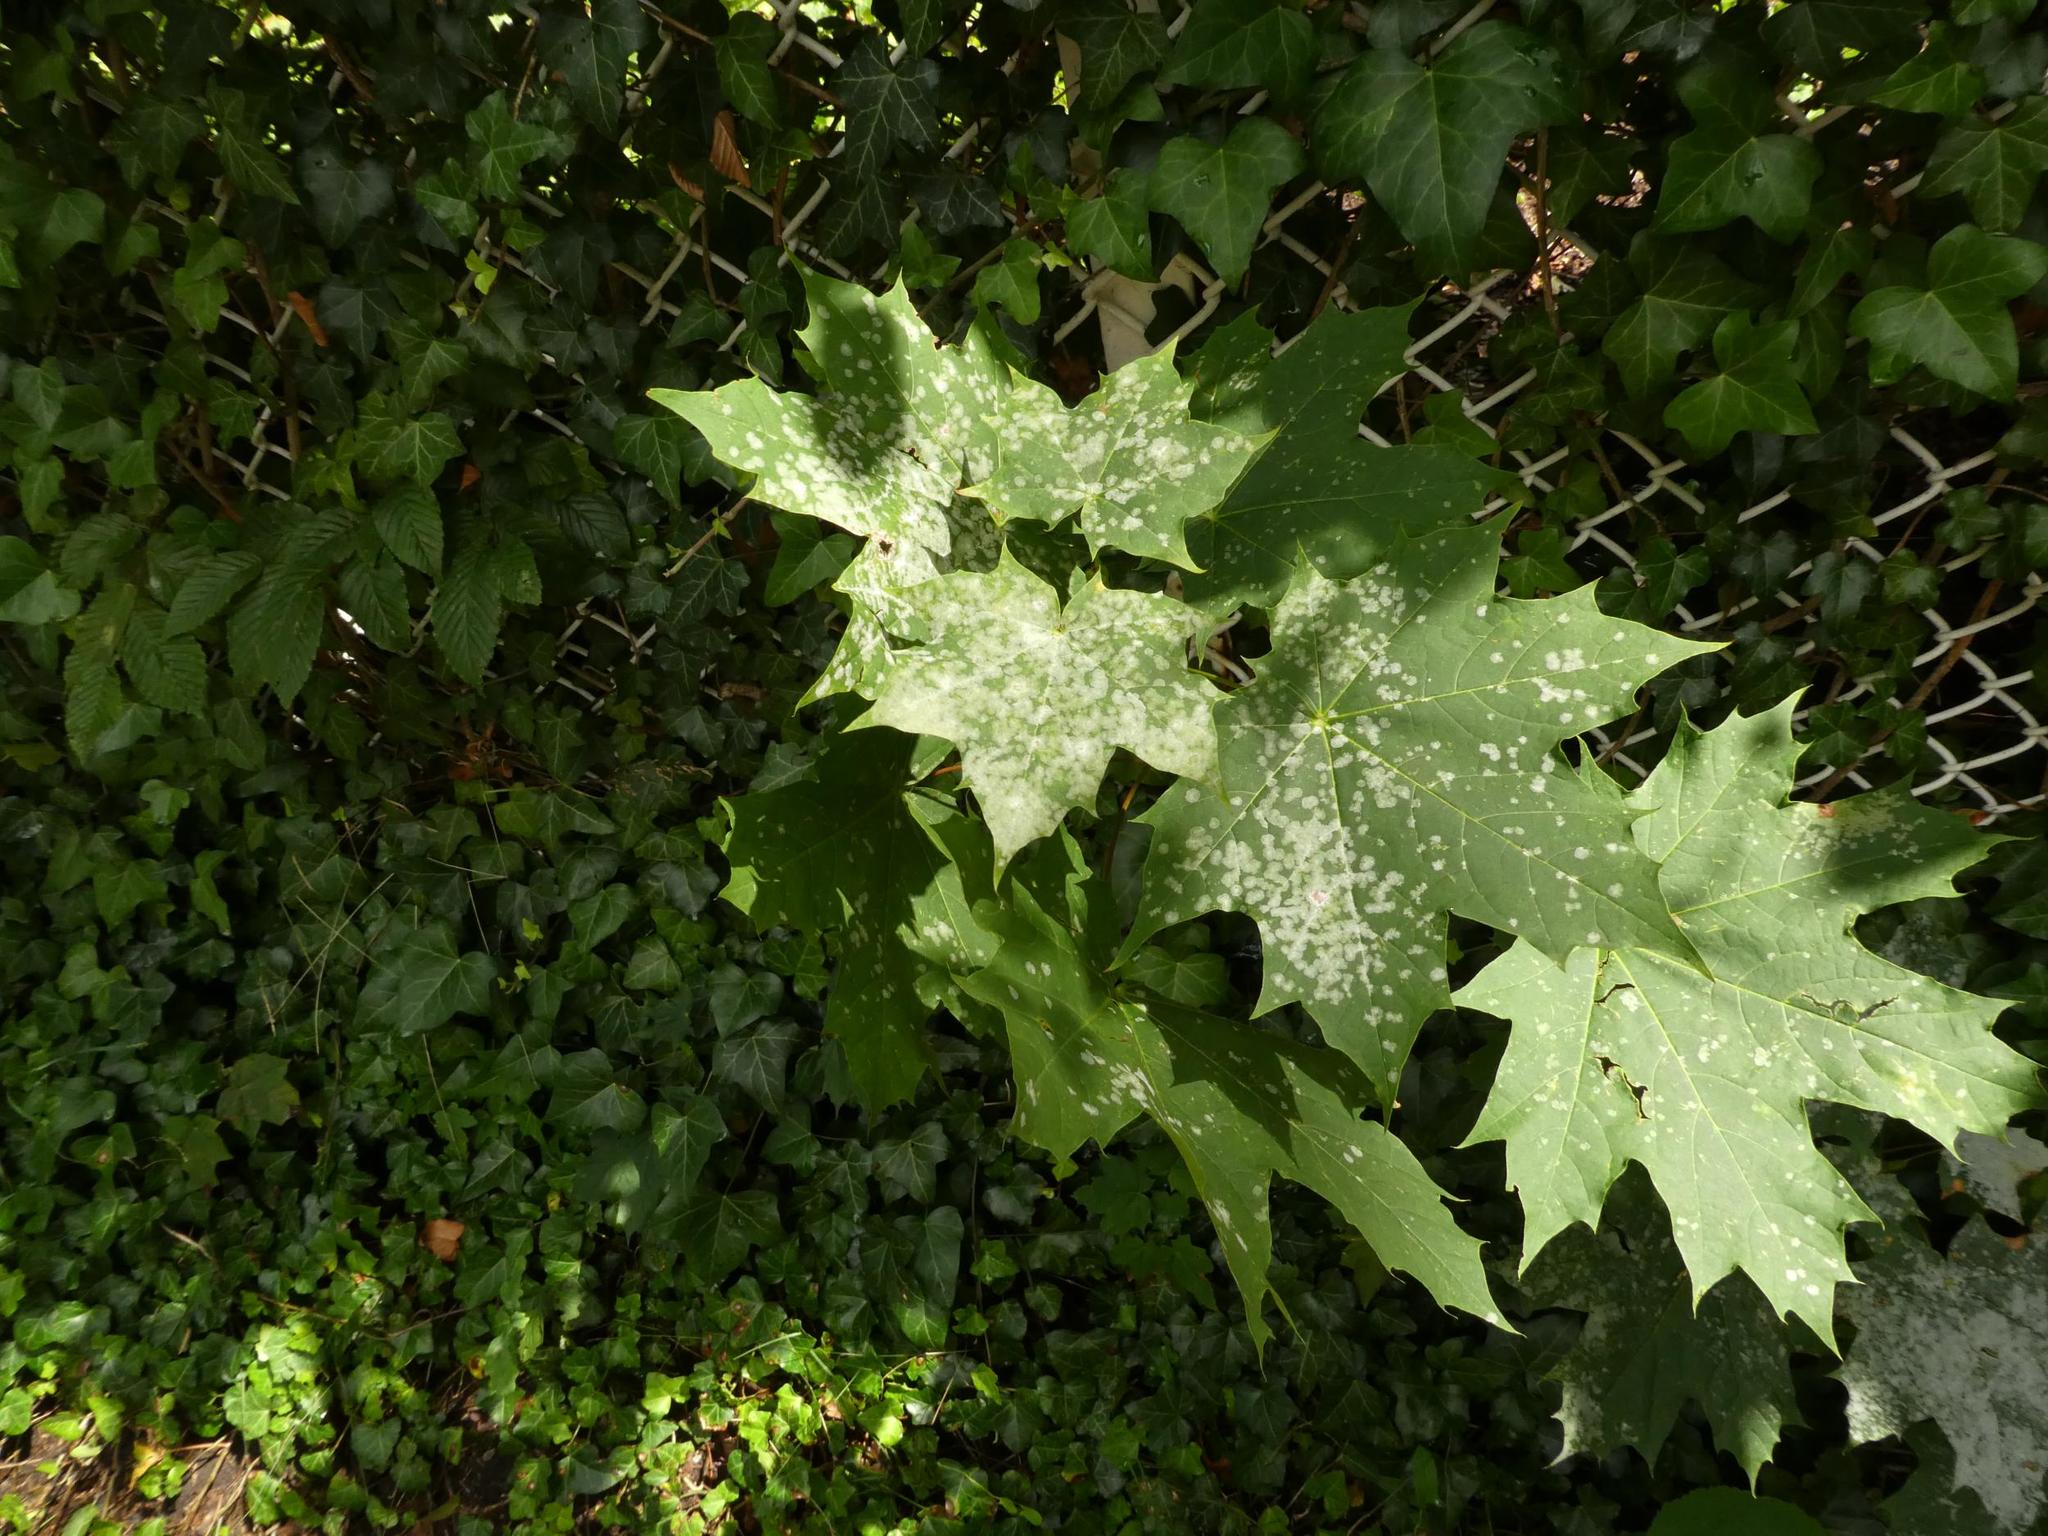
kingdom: Plantae
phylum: Tracheophyta
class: Magnoliopsida
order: Sapindales
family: Sapindaceae
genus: Acer
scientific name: Acer platanoides
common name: Norway maple
